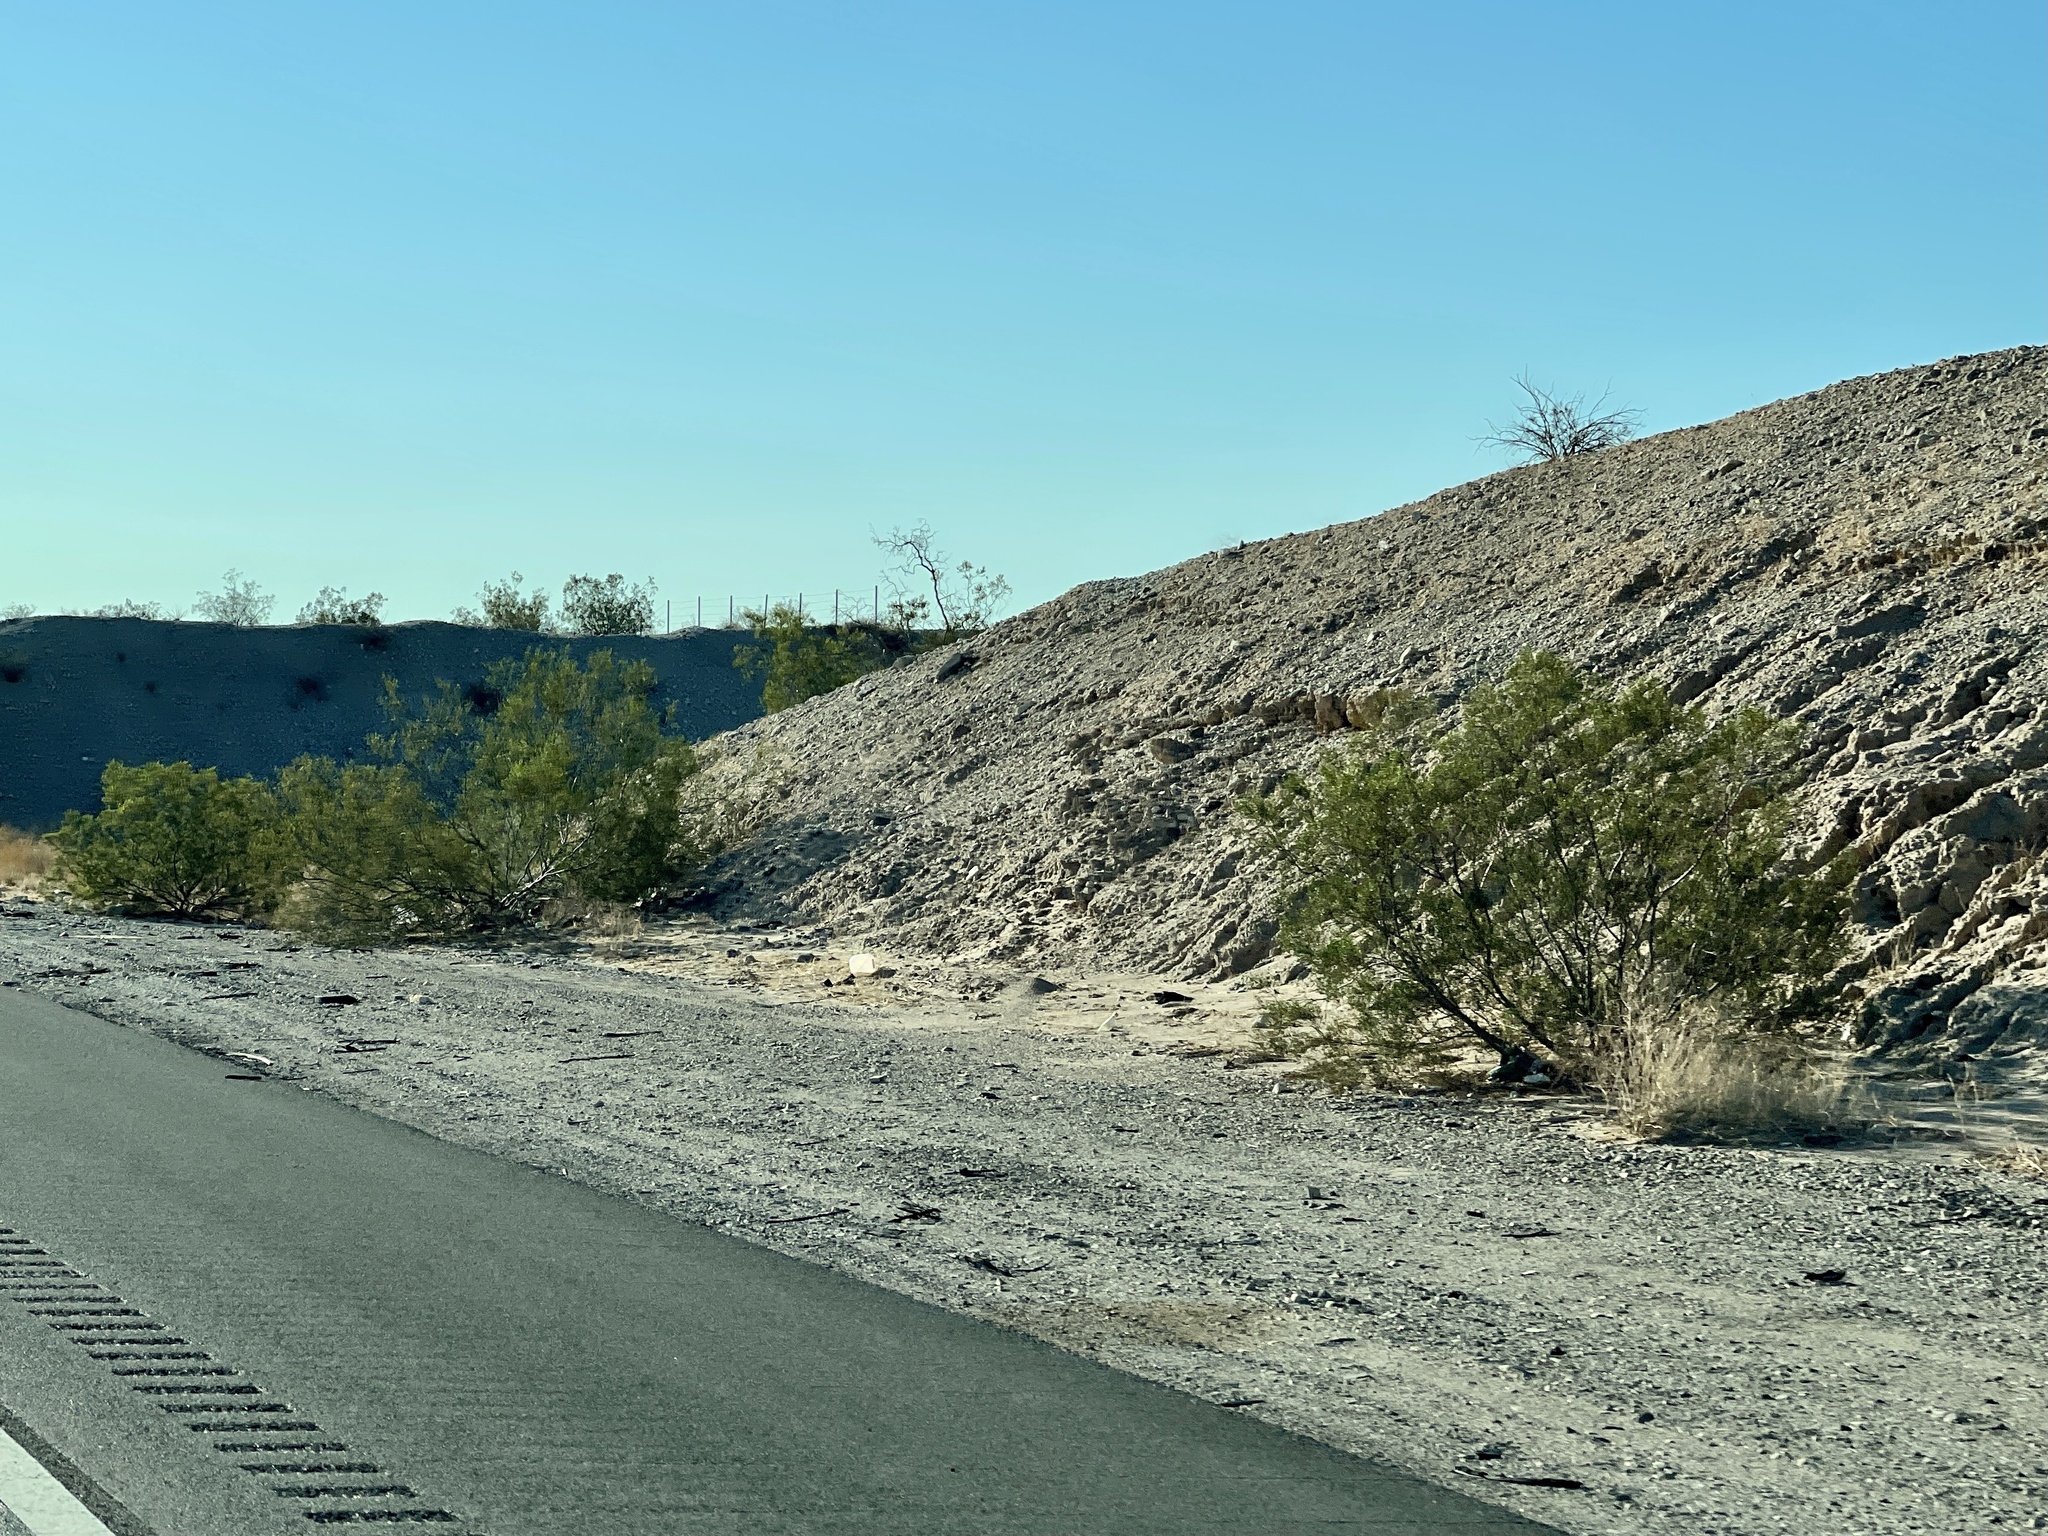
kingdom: Plantae
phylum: Tracheophyta
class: Magnoliopsida
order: Zygophyllales
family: Zygophyllaceae
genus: Larrea
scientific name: Larrea tridentata
